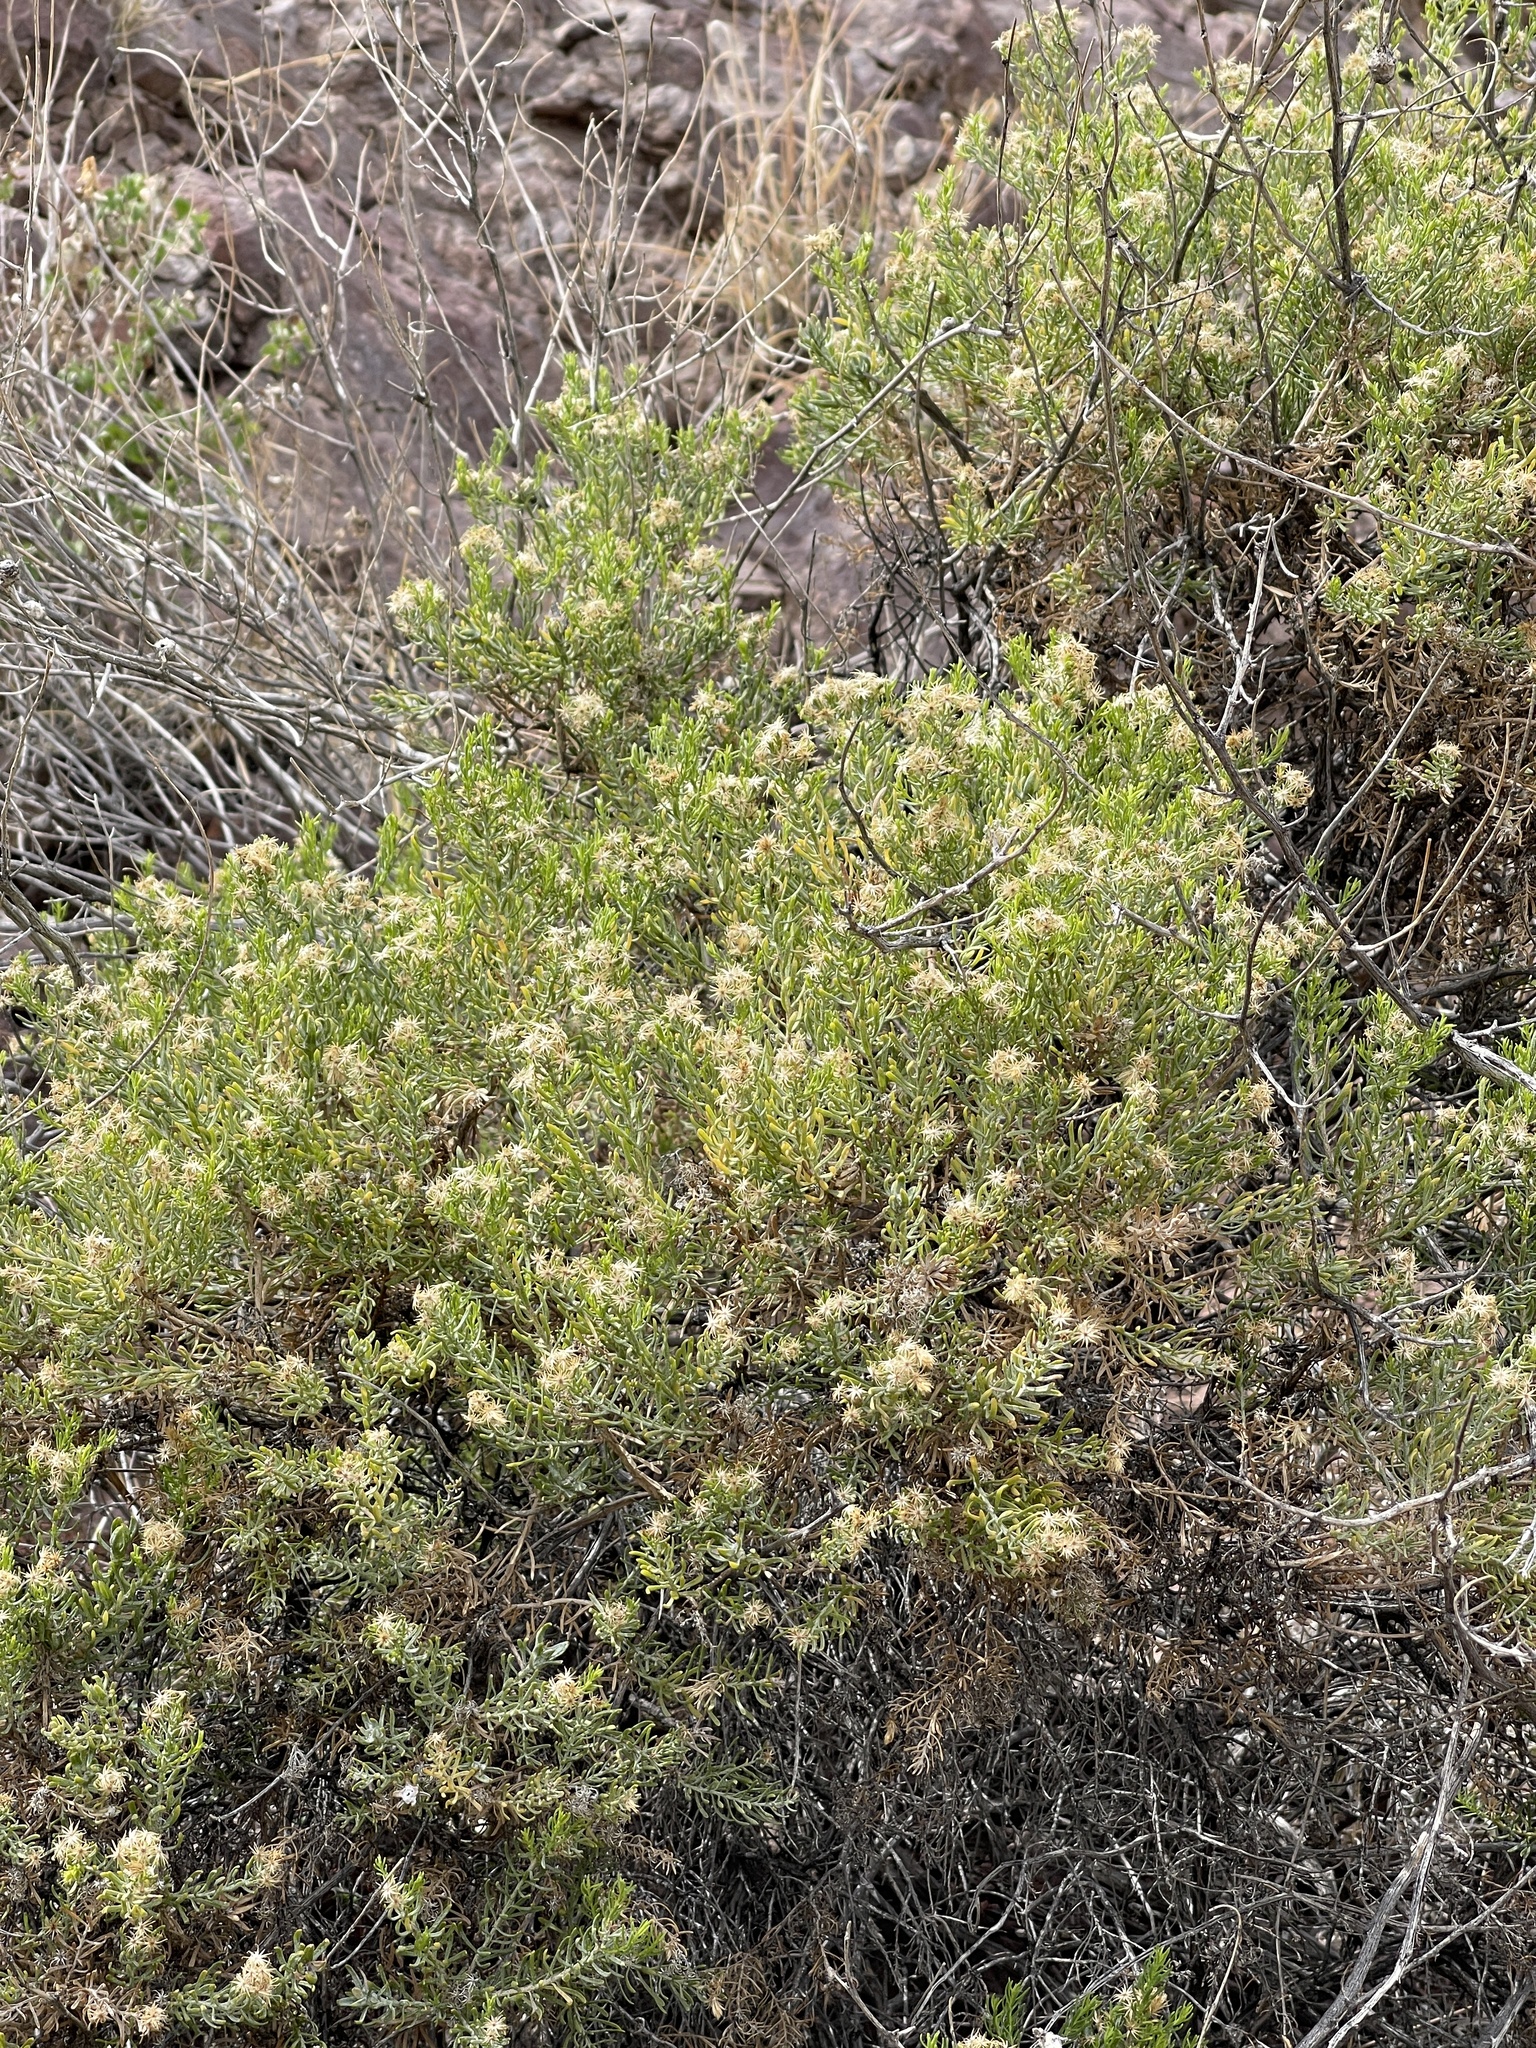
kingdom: Plantae
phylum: Tracheophyta
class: Magnoliopsida
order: Asterales
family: Asteraceae
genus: Ericameria
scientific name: Ericameria laricifolia
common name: Turpentine-bush
